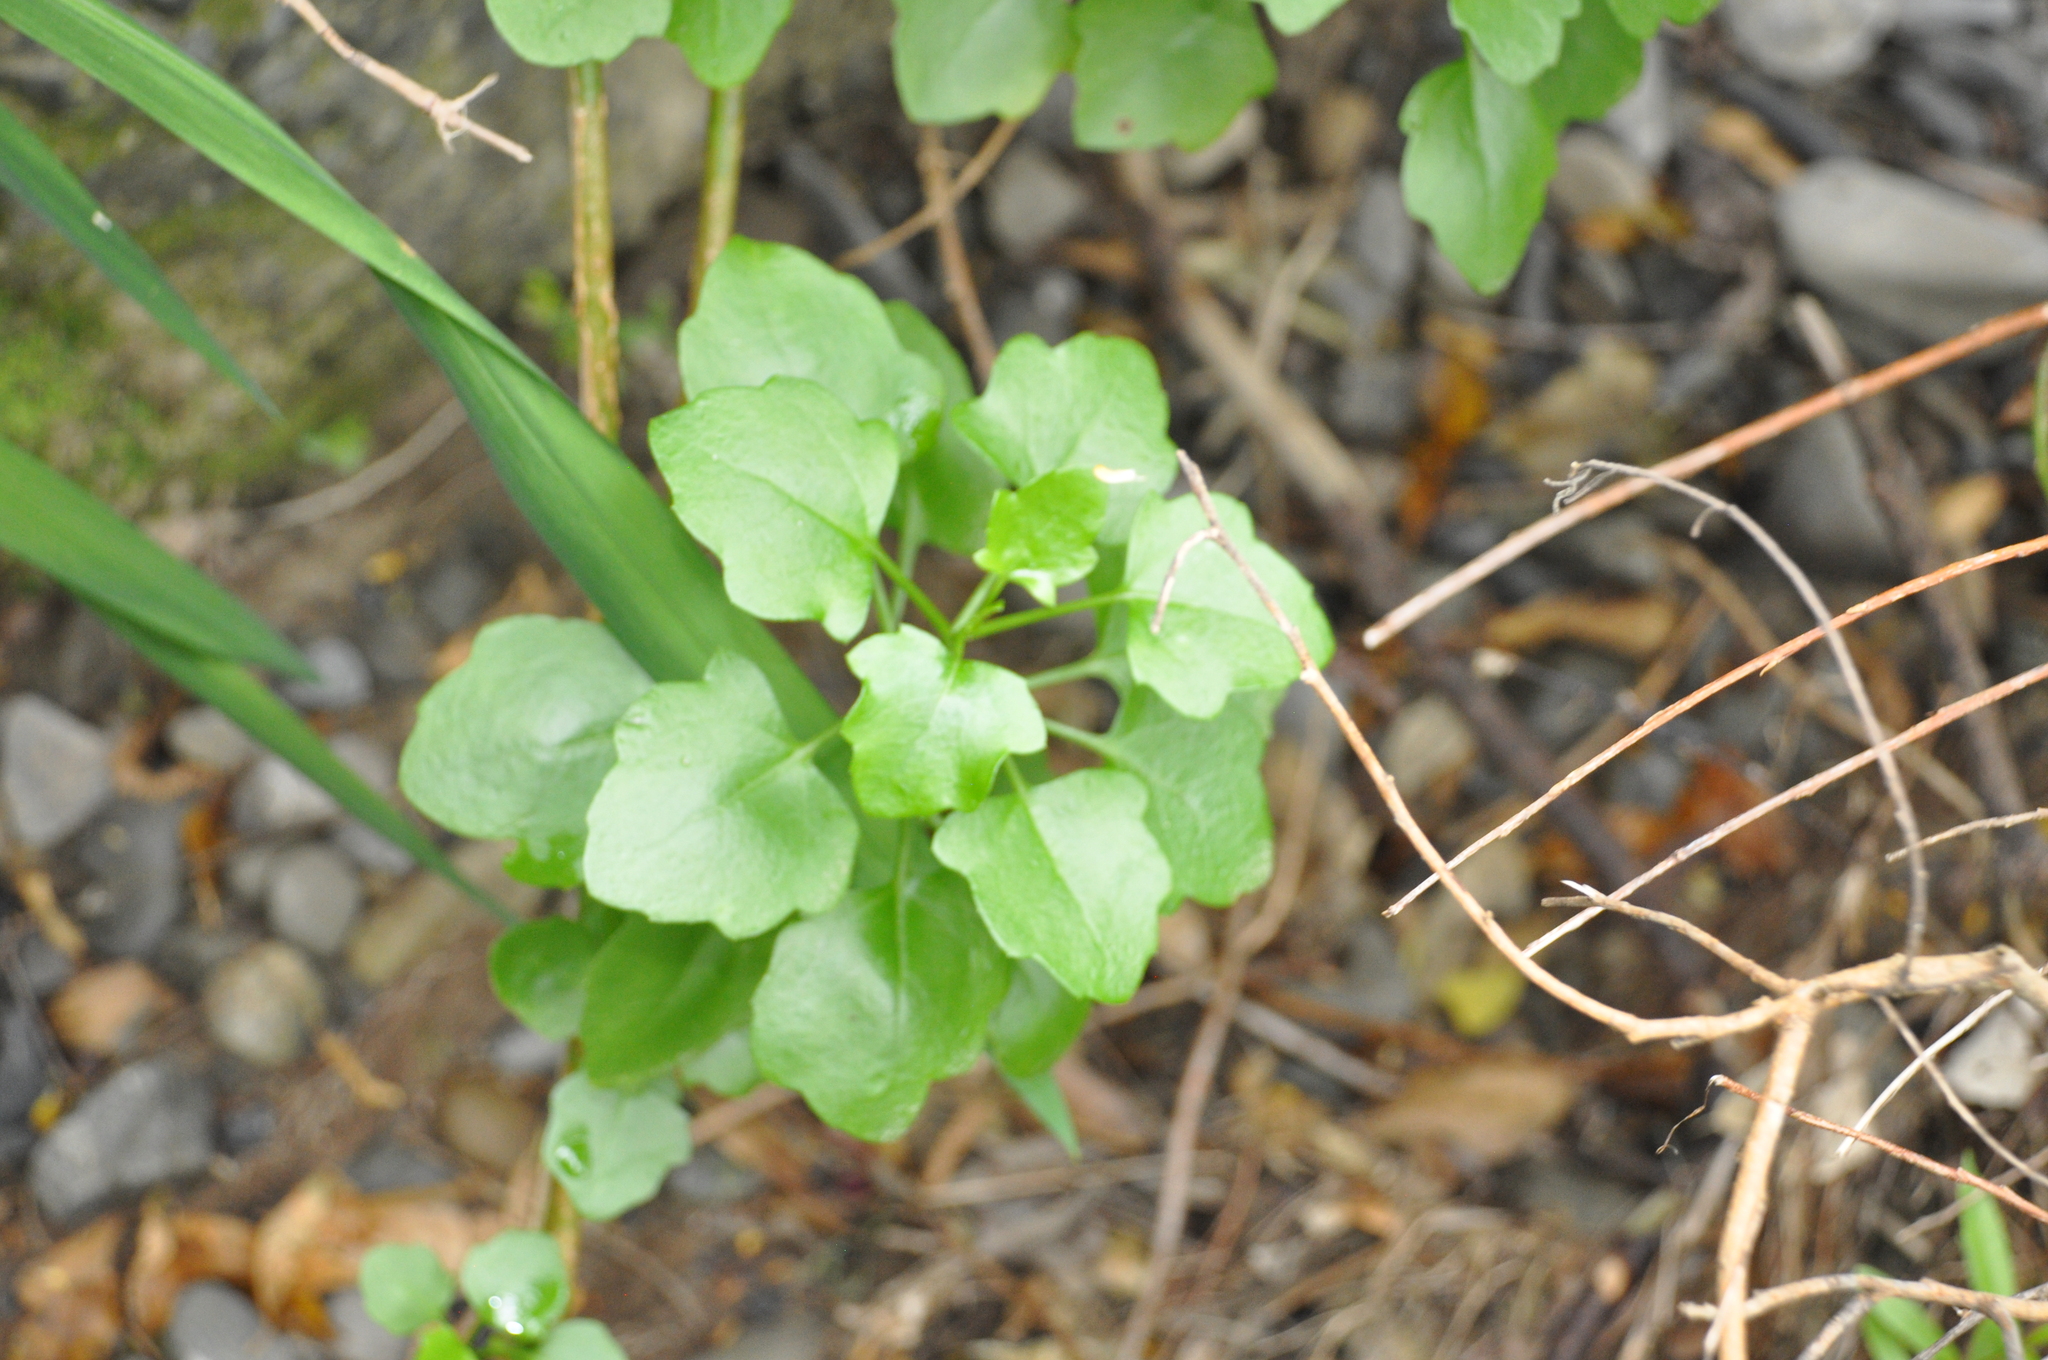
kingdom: Plantae
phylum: Tracheophyta
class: Magnoliopsida
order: Asterales
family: Asteraceae
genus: Senecio
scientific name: Senecio angulatus
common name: Climbing groundsel
